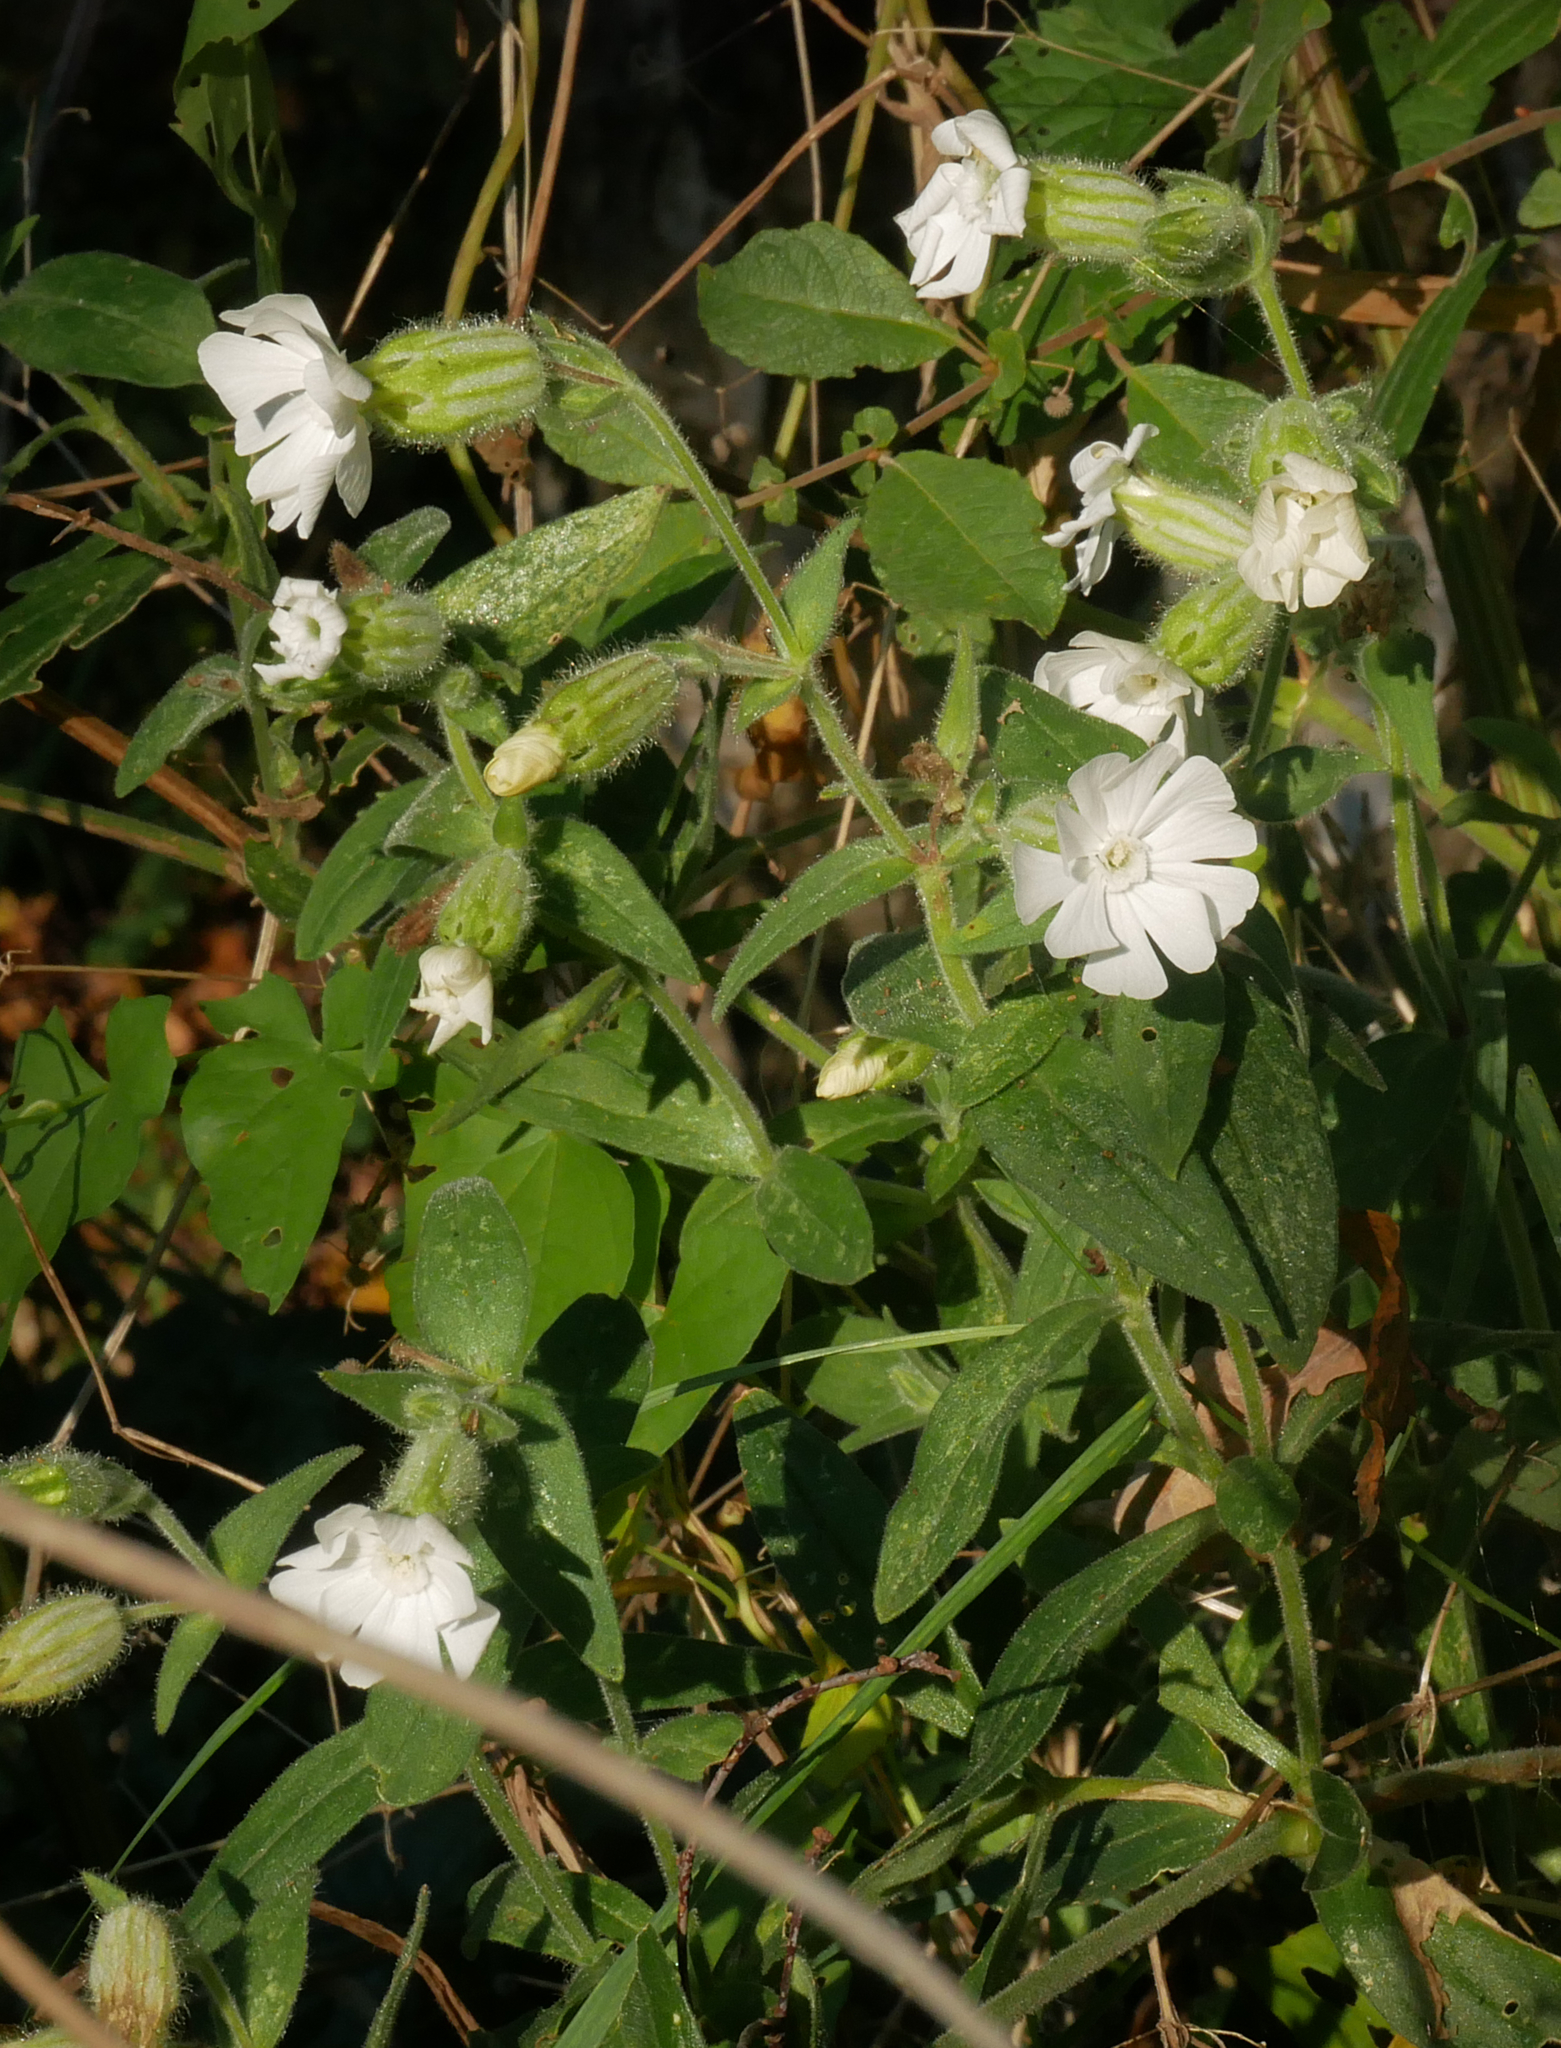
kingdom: Plantae
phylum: Tracheophyta
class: Magnoliopsida
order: Caryophyllales
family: Caryophyllaceae
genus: Silene
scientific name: Silene latifolia
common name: White campion
